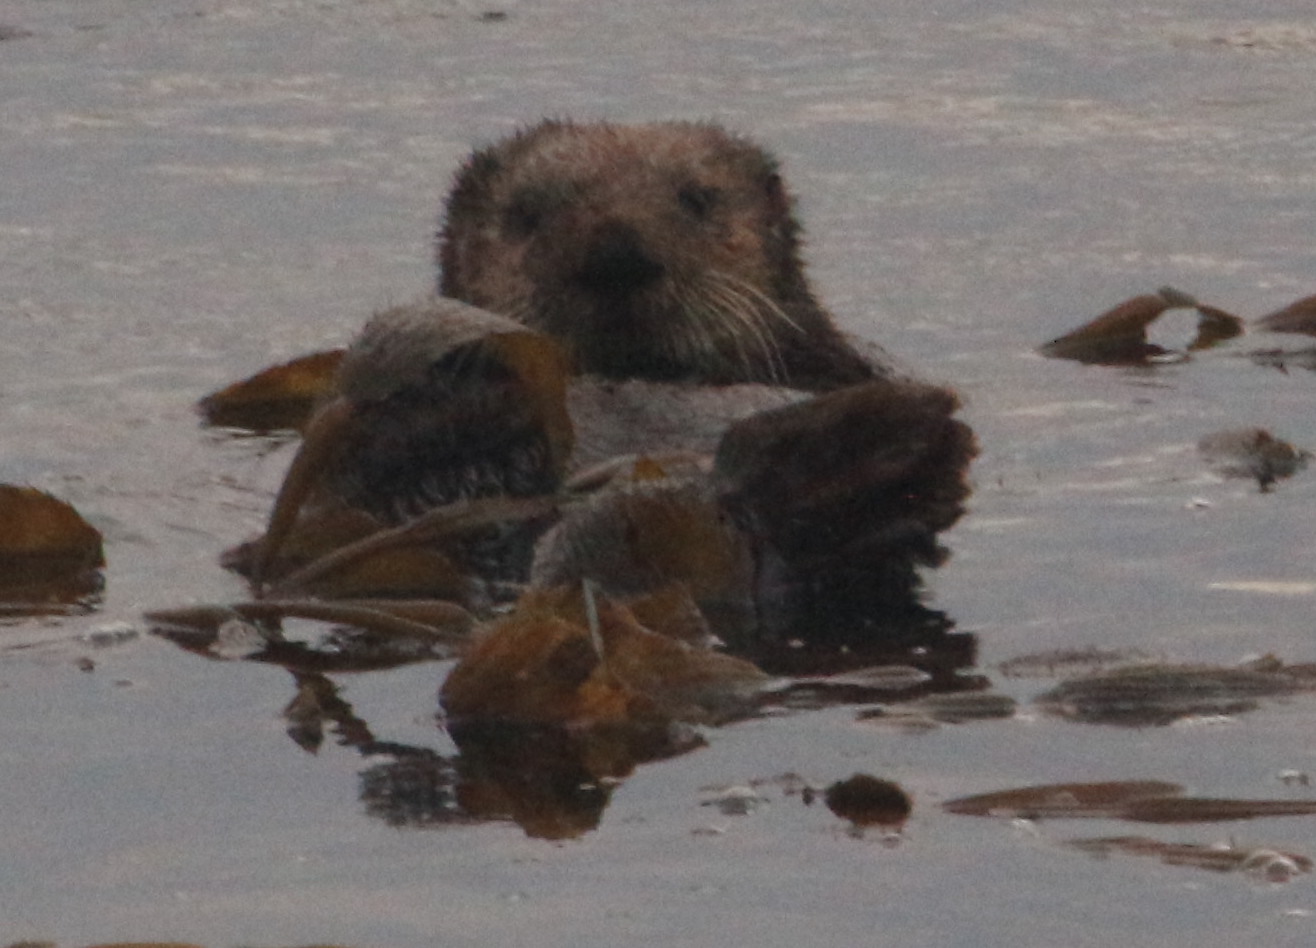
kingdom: Animalia
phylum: Chordata
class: Mammalia
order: Carnivora
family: Mustelidae
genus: Enhydra
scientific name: Enhydra lutris
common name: Sea otter
